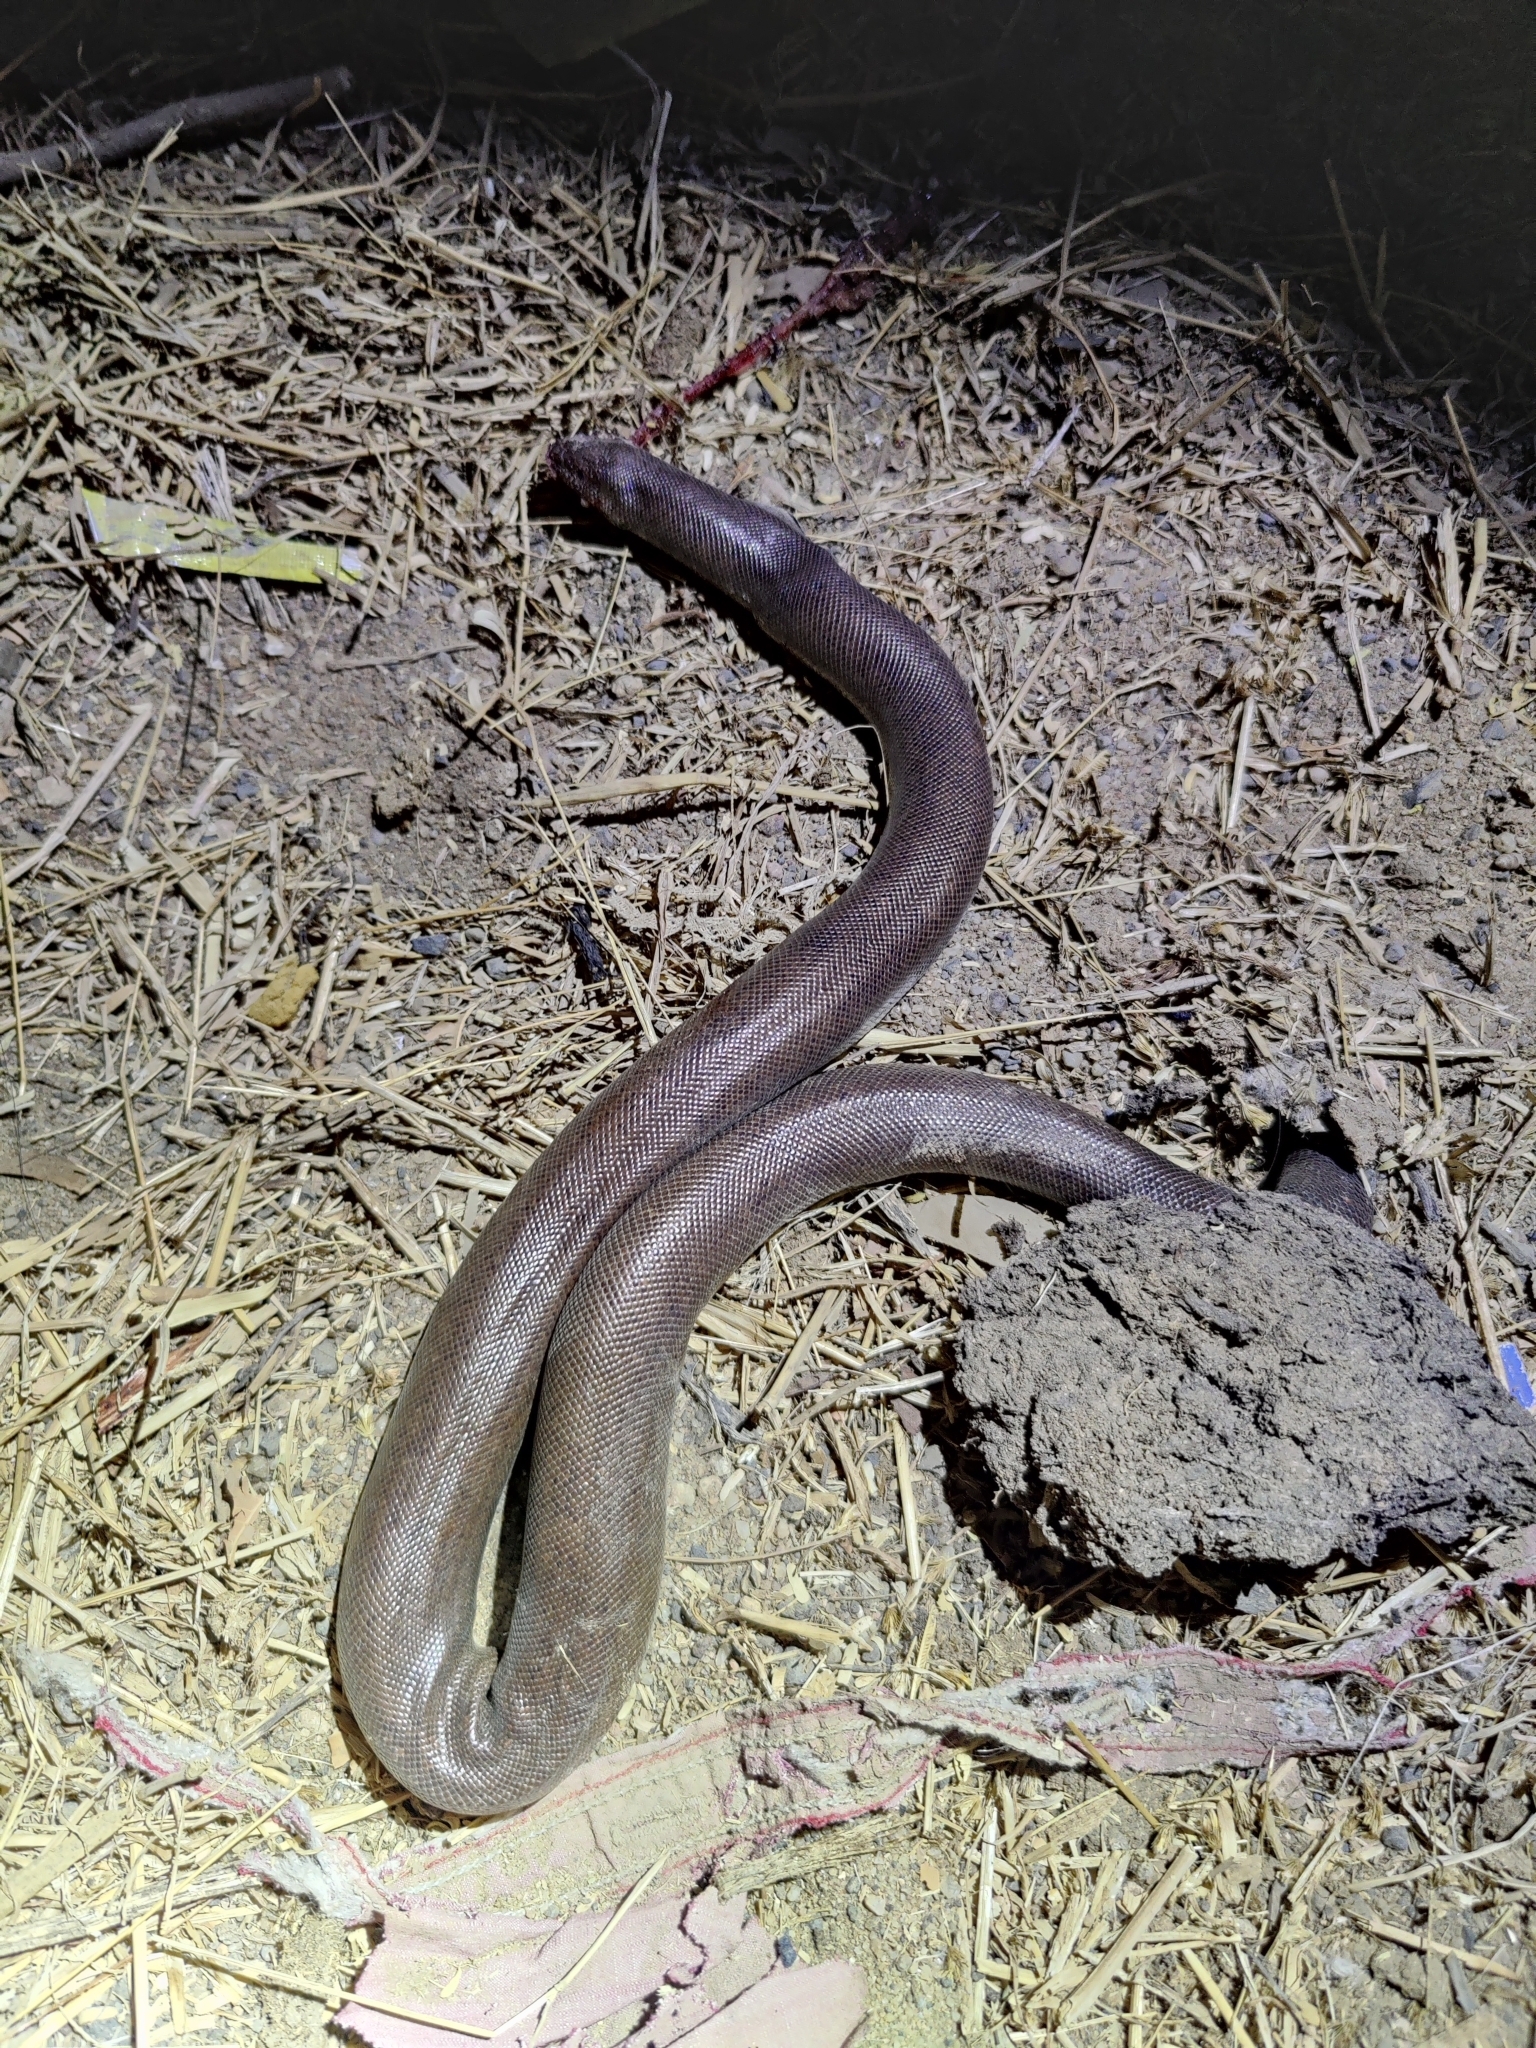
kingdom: Animalia
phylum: Chordata
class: Squamata
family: Boidae
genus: Eryx
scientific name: Eryx johnii
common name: Brown sand boa
